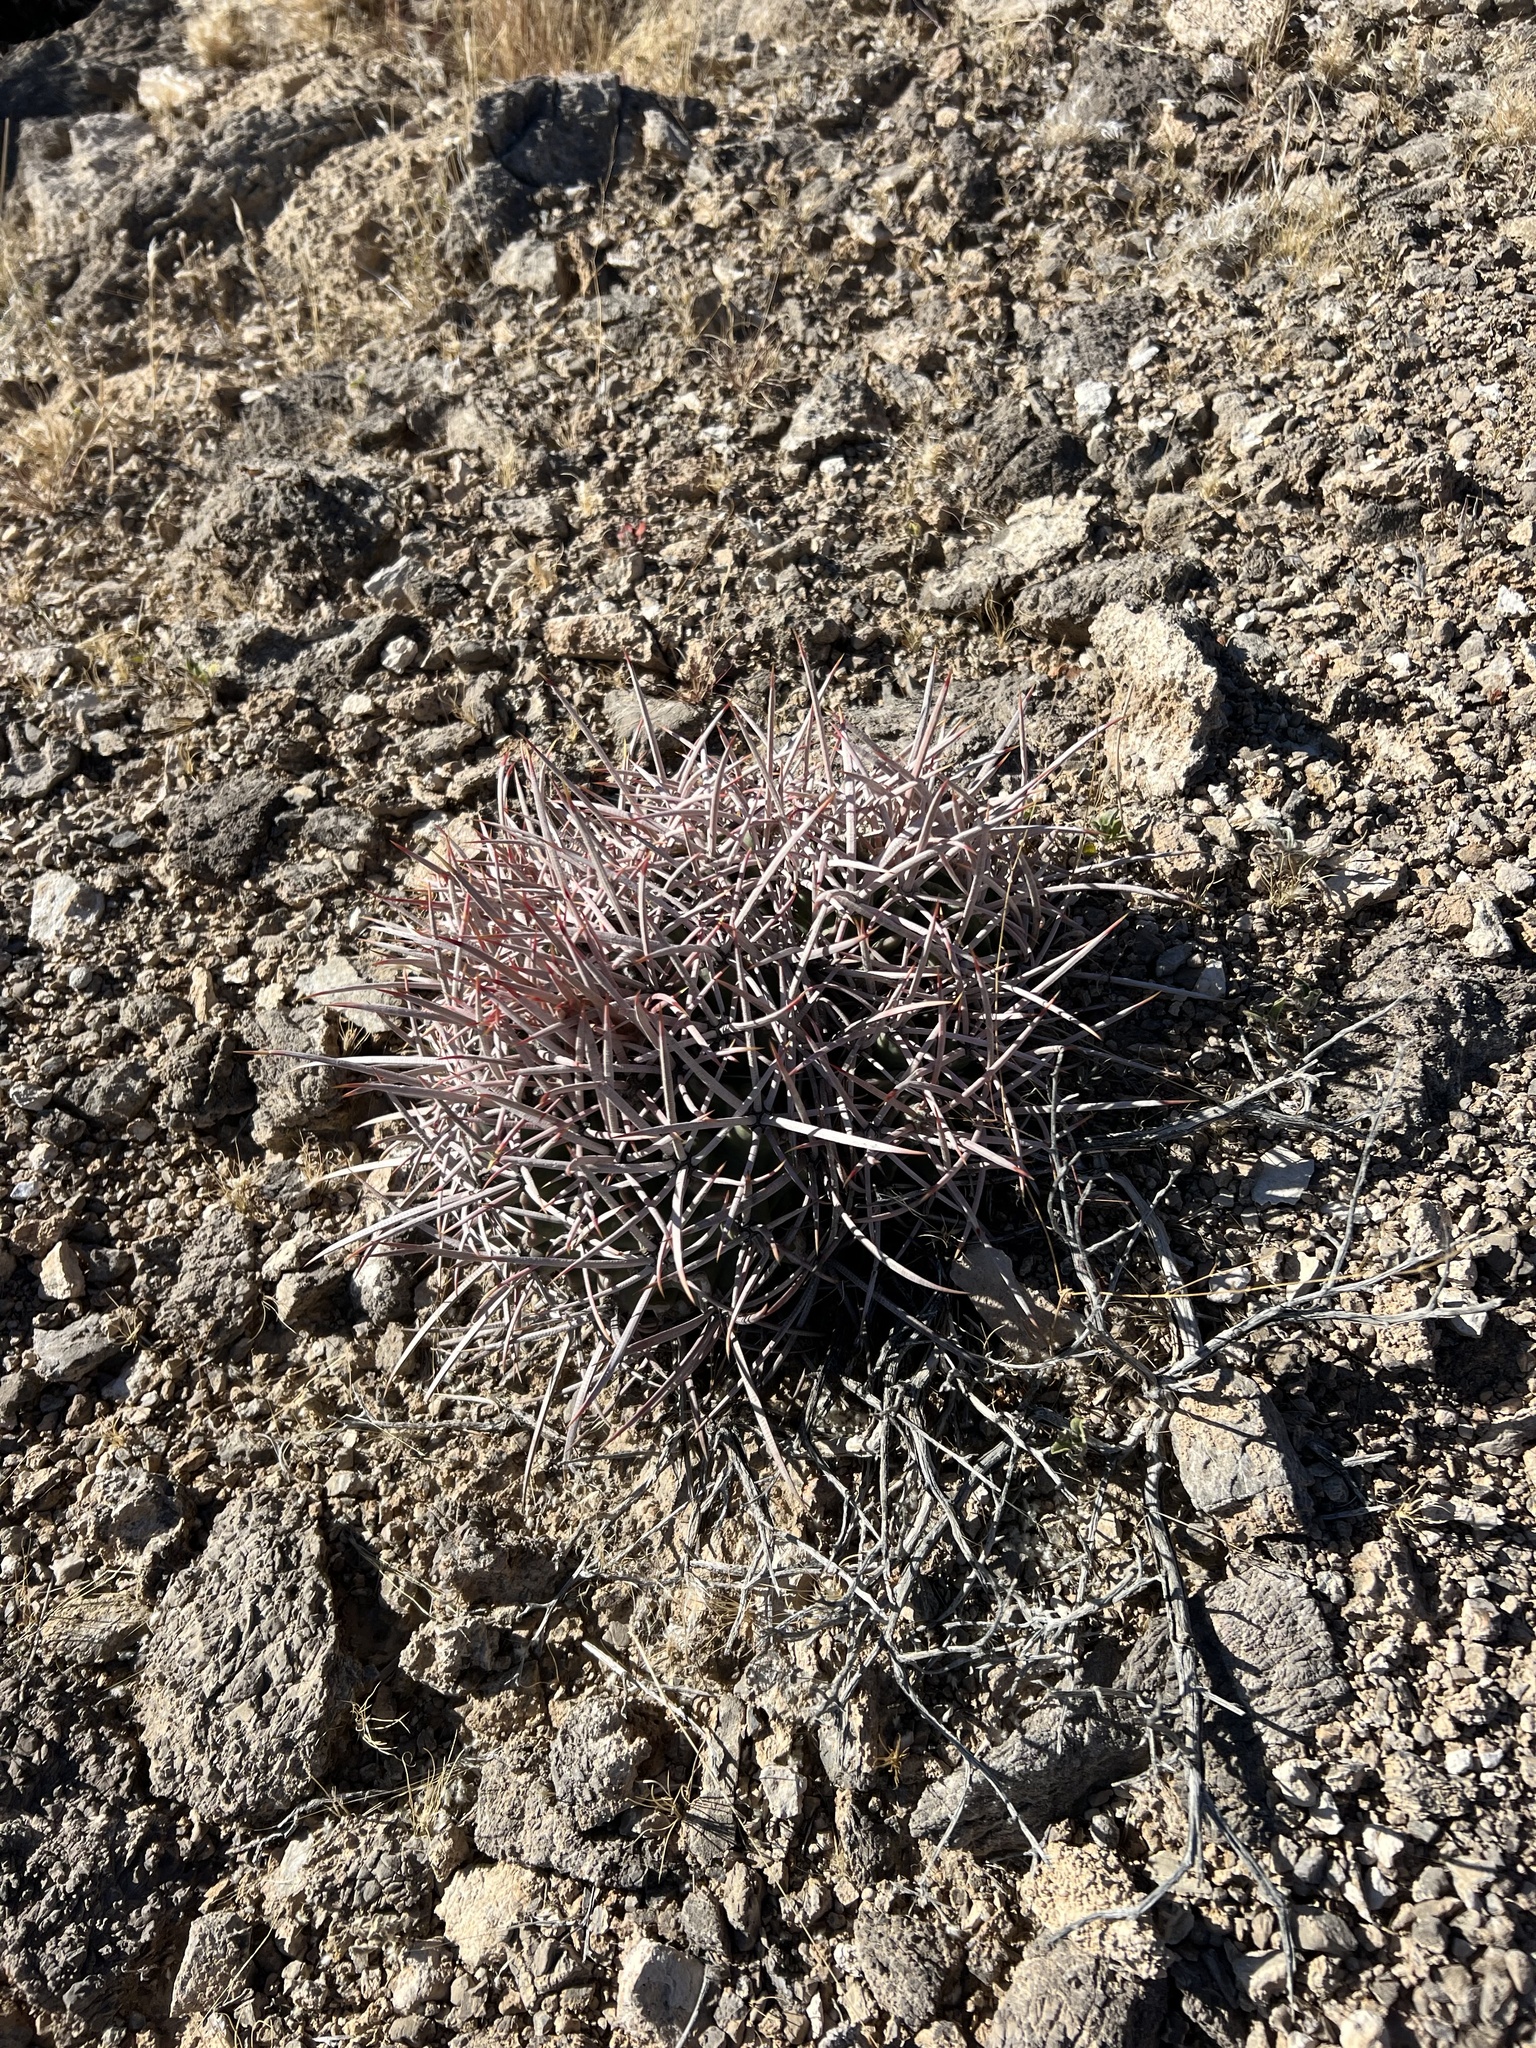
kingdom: Plantae
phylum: Tracheophyta
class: Magnoliopsida
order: Caryophyllales
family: Cactaceae
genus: Echinocactus
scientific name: Echinocactus polycephalus
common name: Cottontop cactus
